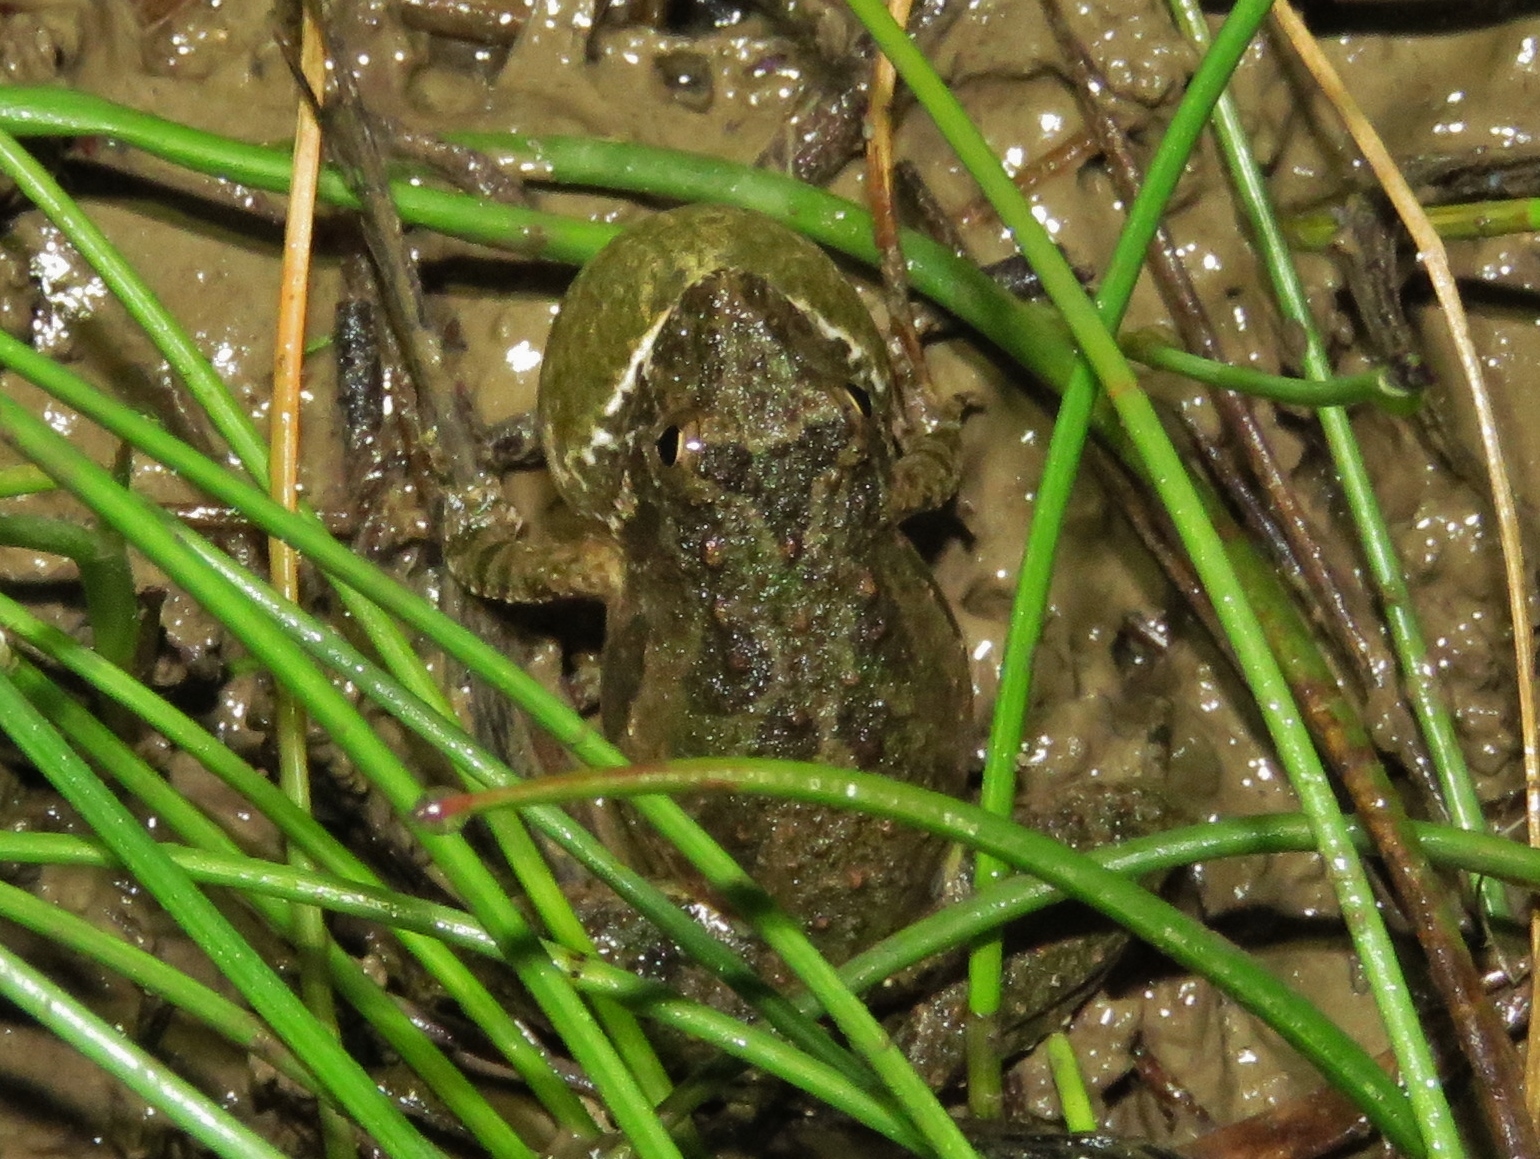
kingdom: Animalia
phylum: Chordata
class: Amphibia
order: Anura
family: Hylidae
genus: Acris
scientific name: Acris blanchardi
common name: Blanchard's cricket frog
